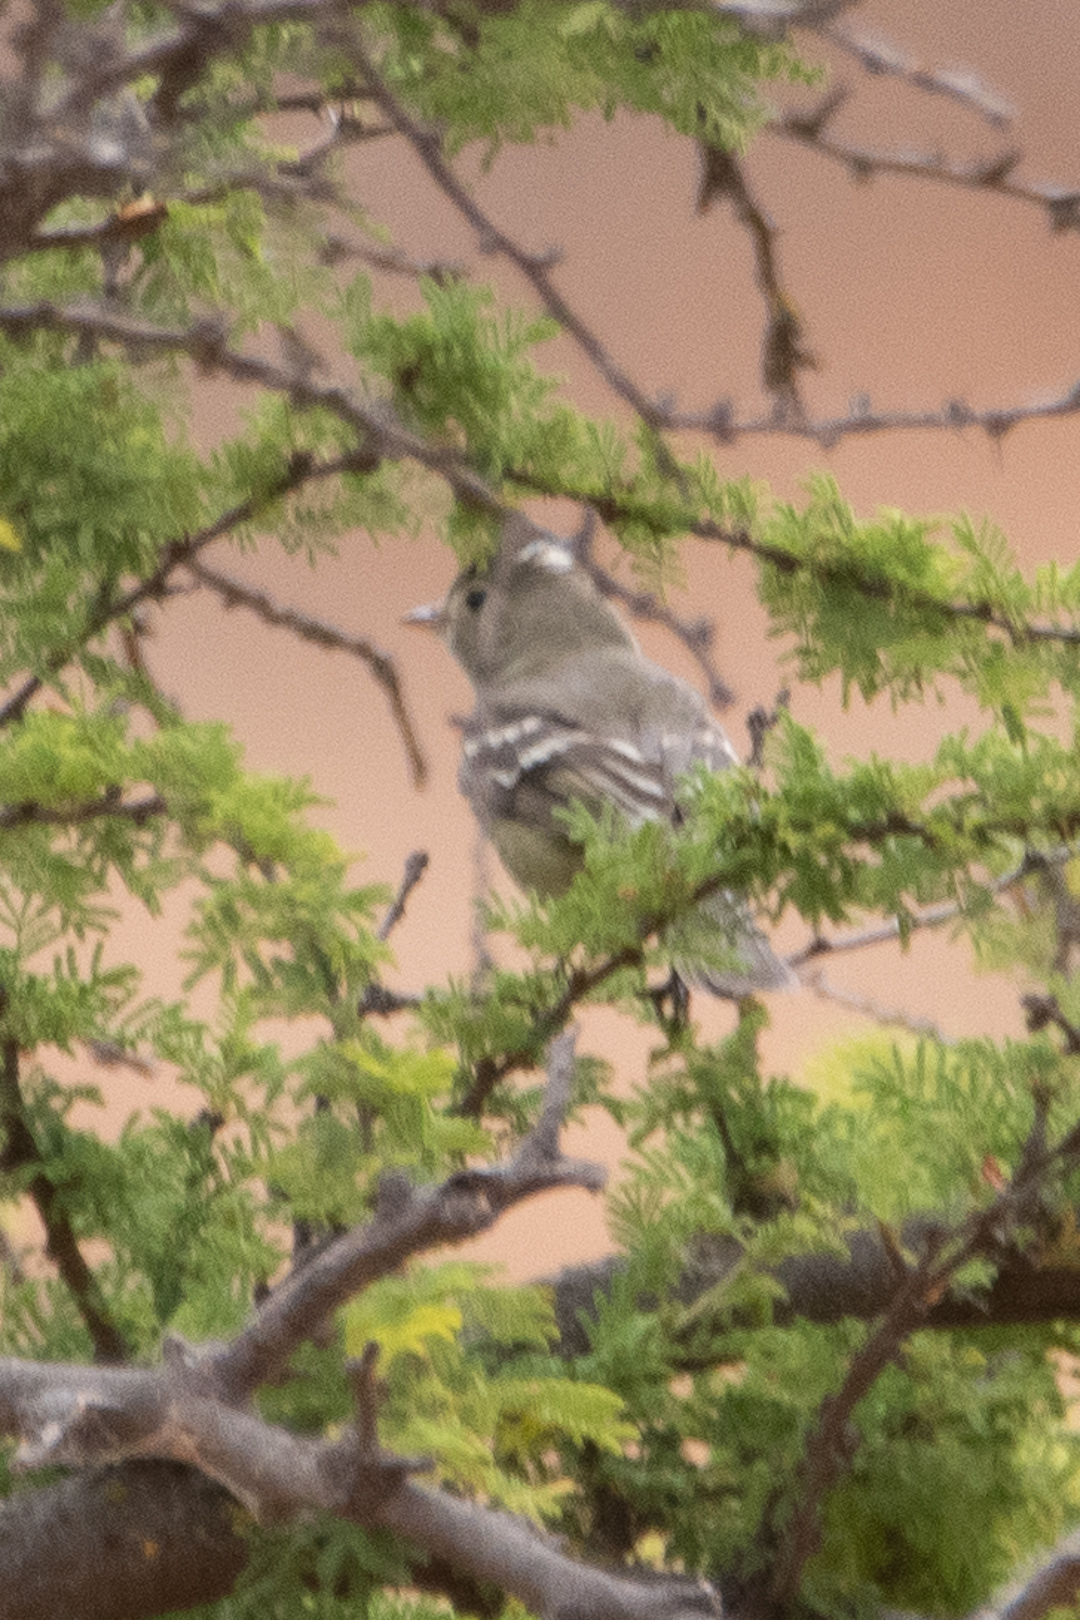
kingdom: Animalia
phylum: Chordata
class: Aves
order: Passeriformes
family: Tyrannidae
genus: Elaenia
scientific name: Elaenia albiceps
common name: White-crested elaenia
